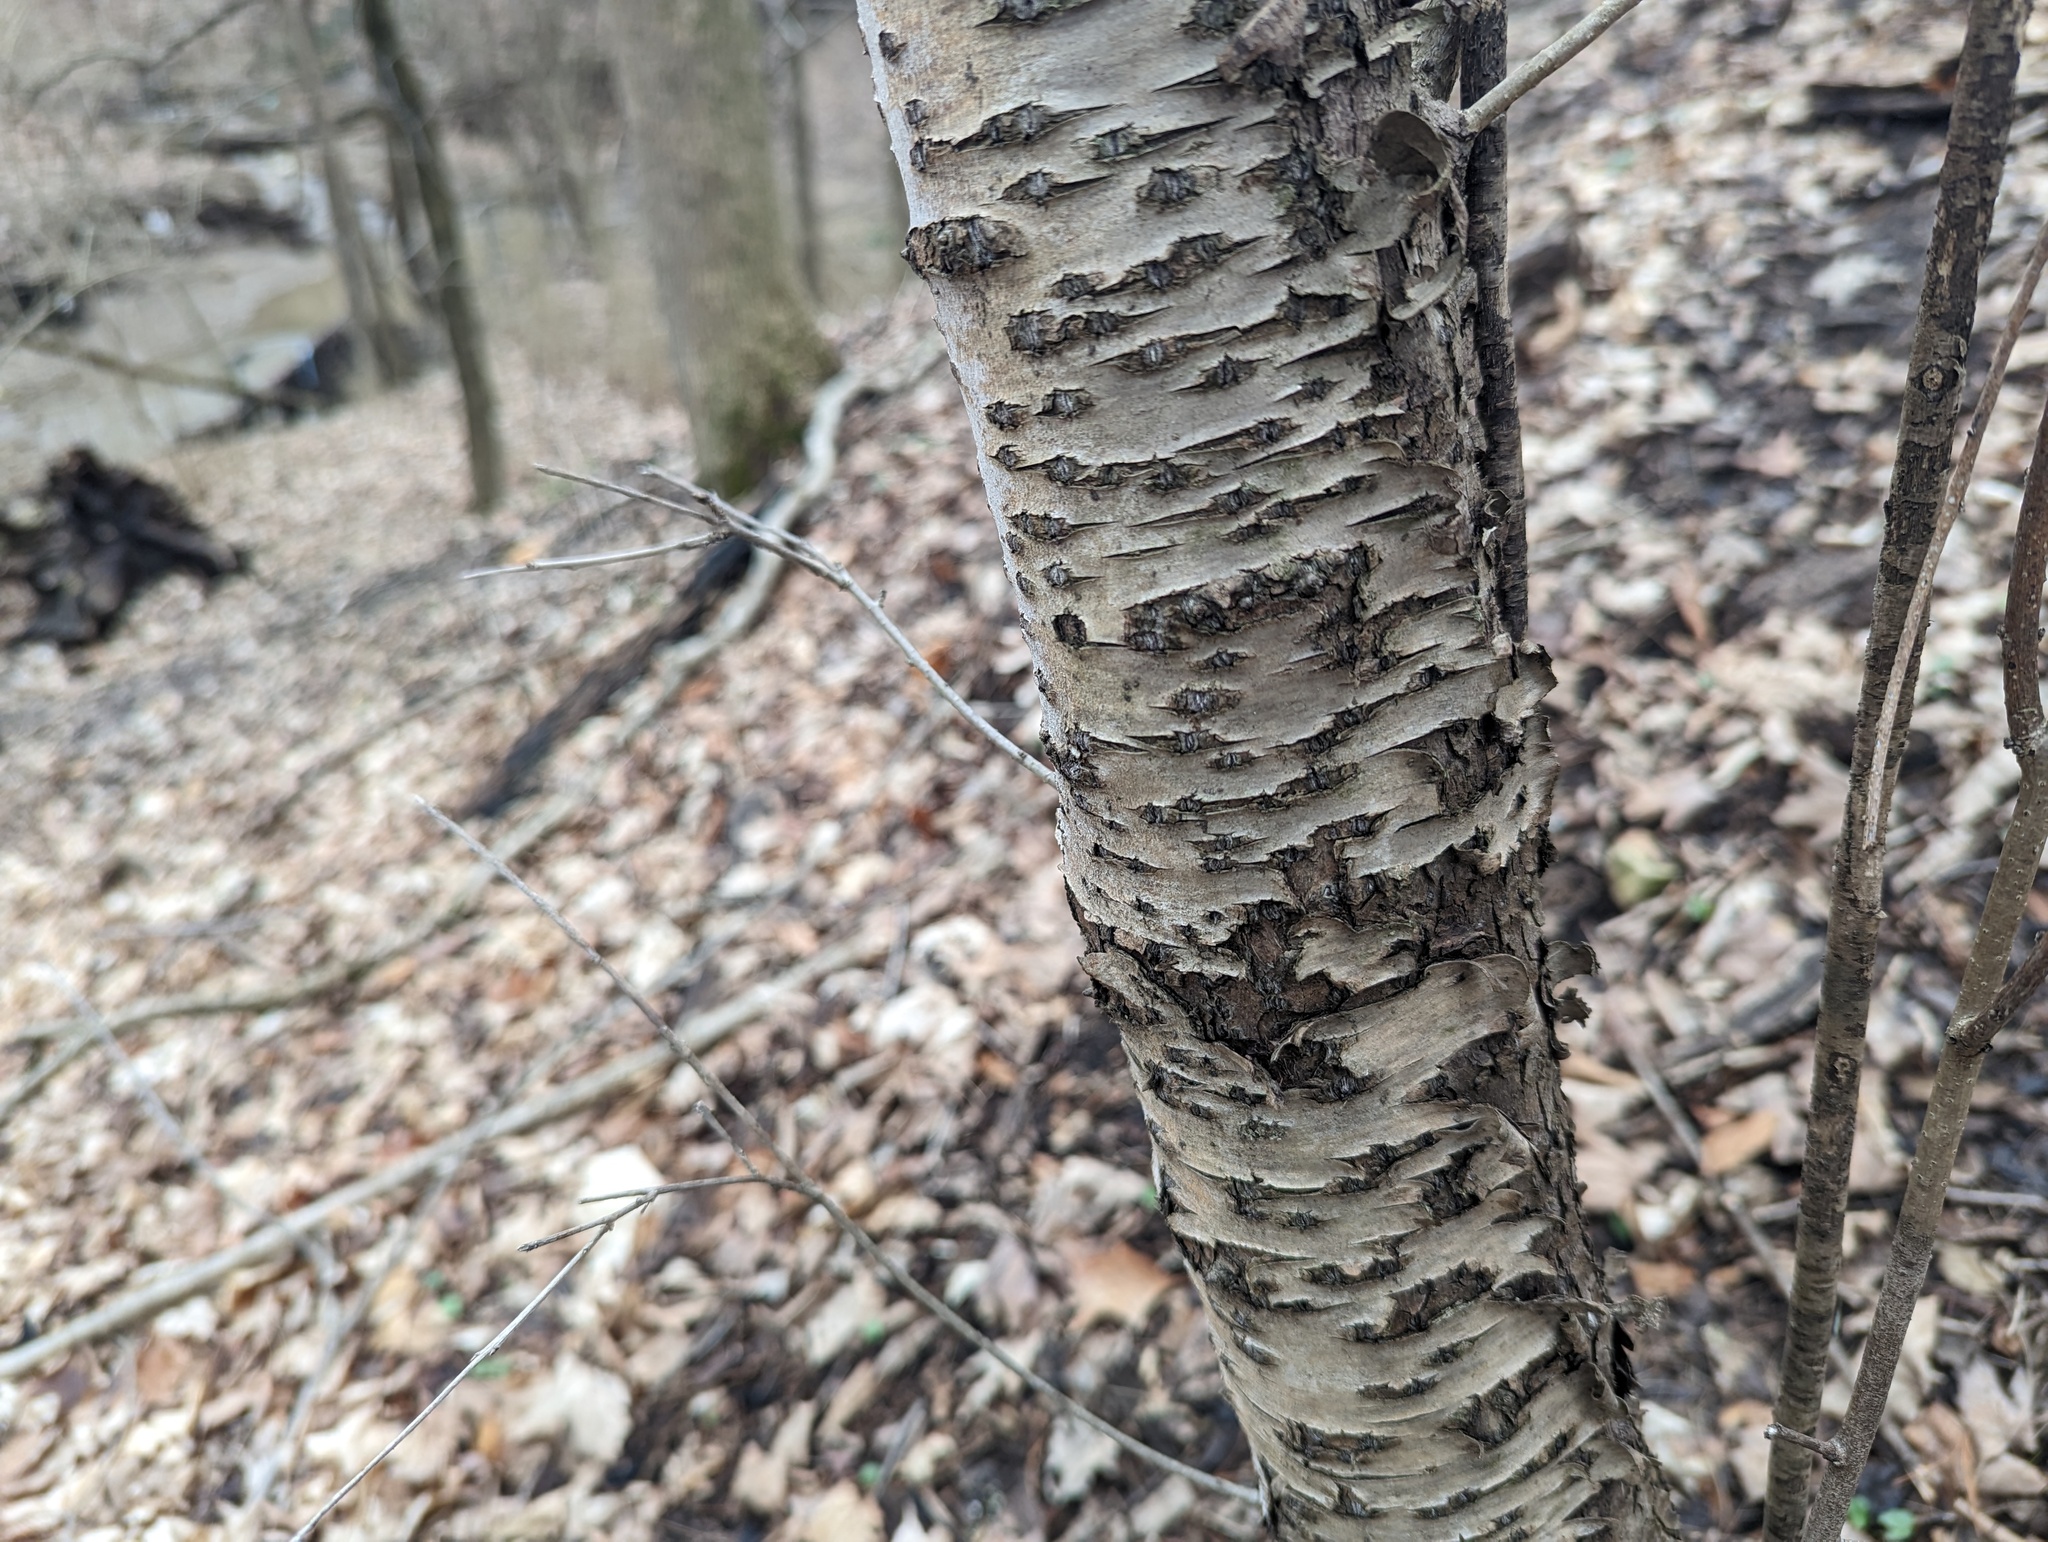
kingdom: Plantae
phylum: Tracheophyta
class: Magnoliopsida
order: Rosales
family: Rhamnaceae
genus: Rhamnus
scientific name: Rhamnus cathartica
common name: Common buckthorn
